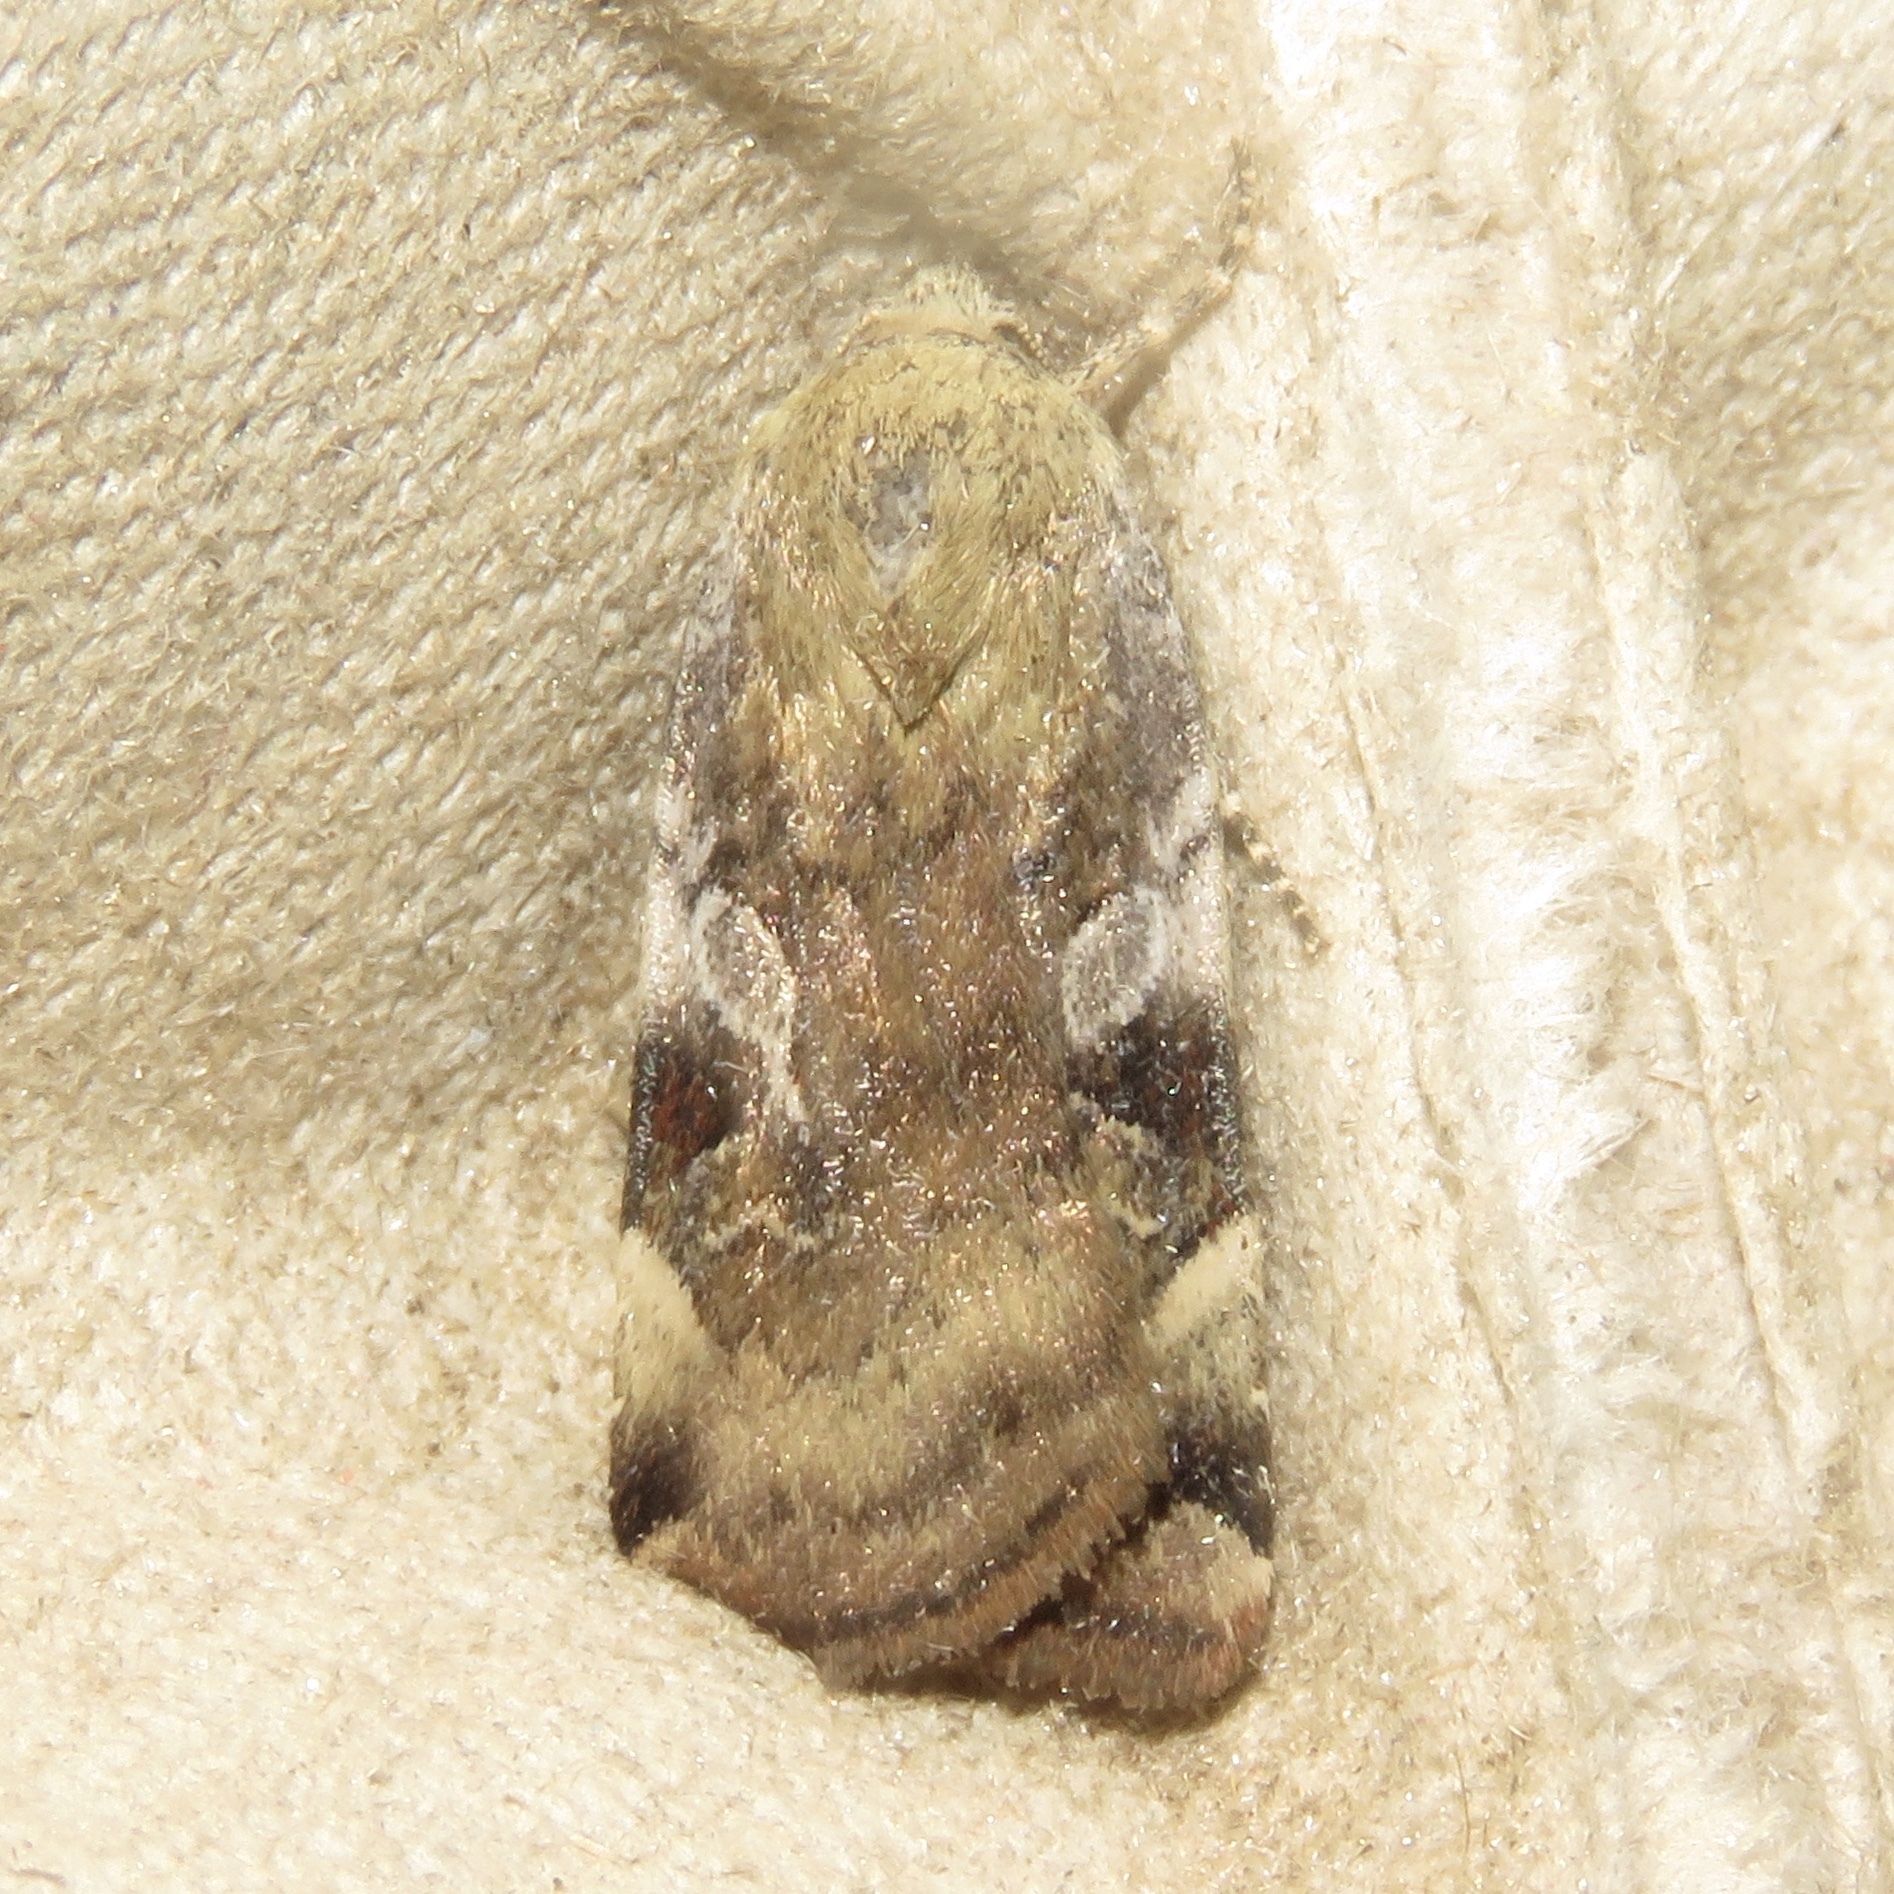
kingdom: Animalia
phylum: Arthropoda
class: Insecta
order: Lepidoptera
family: Noctuidae
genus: Cryptocala
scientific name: Cryptocala acadiensis
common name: Catocaline dart
